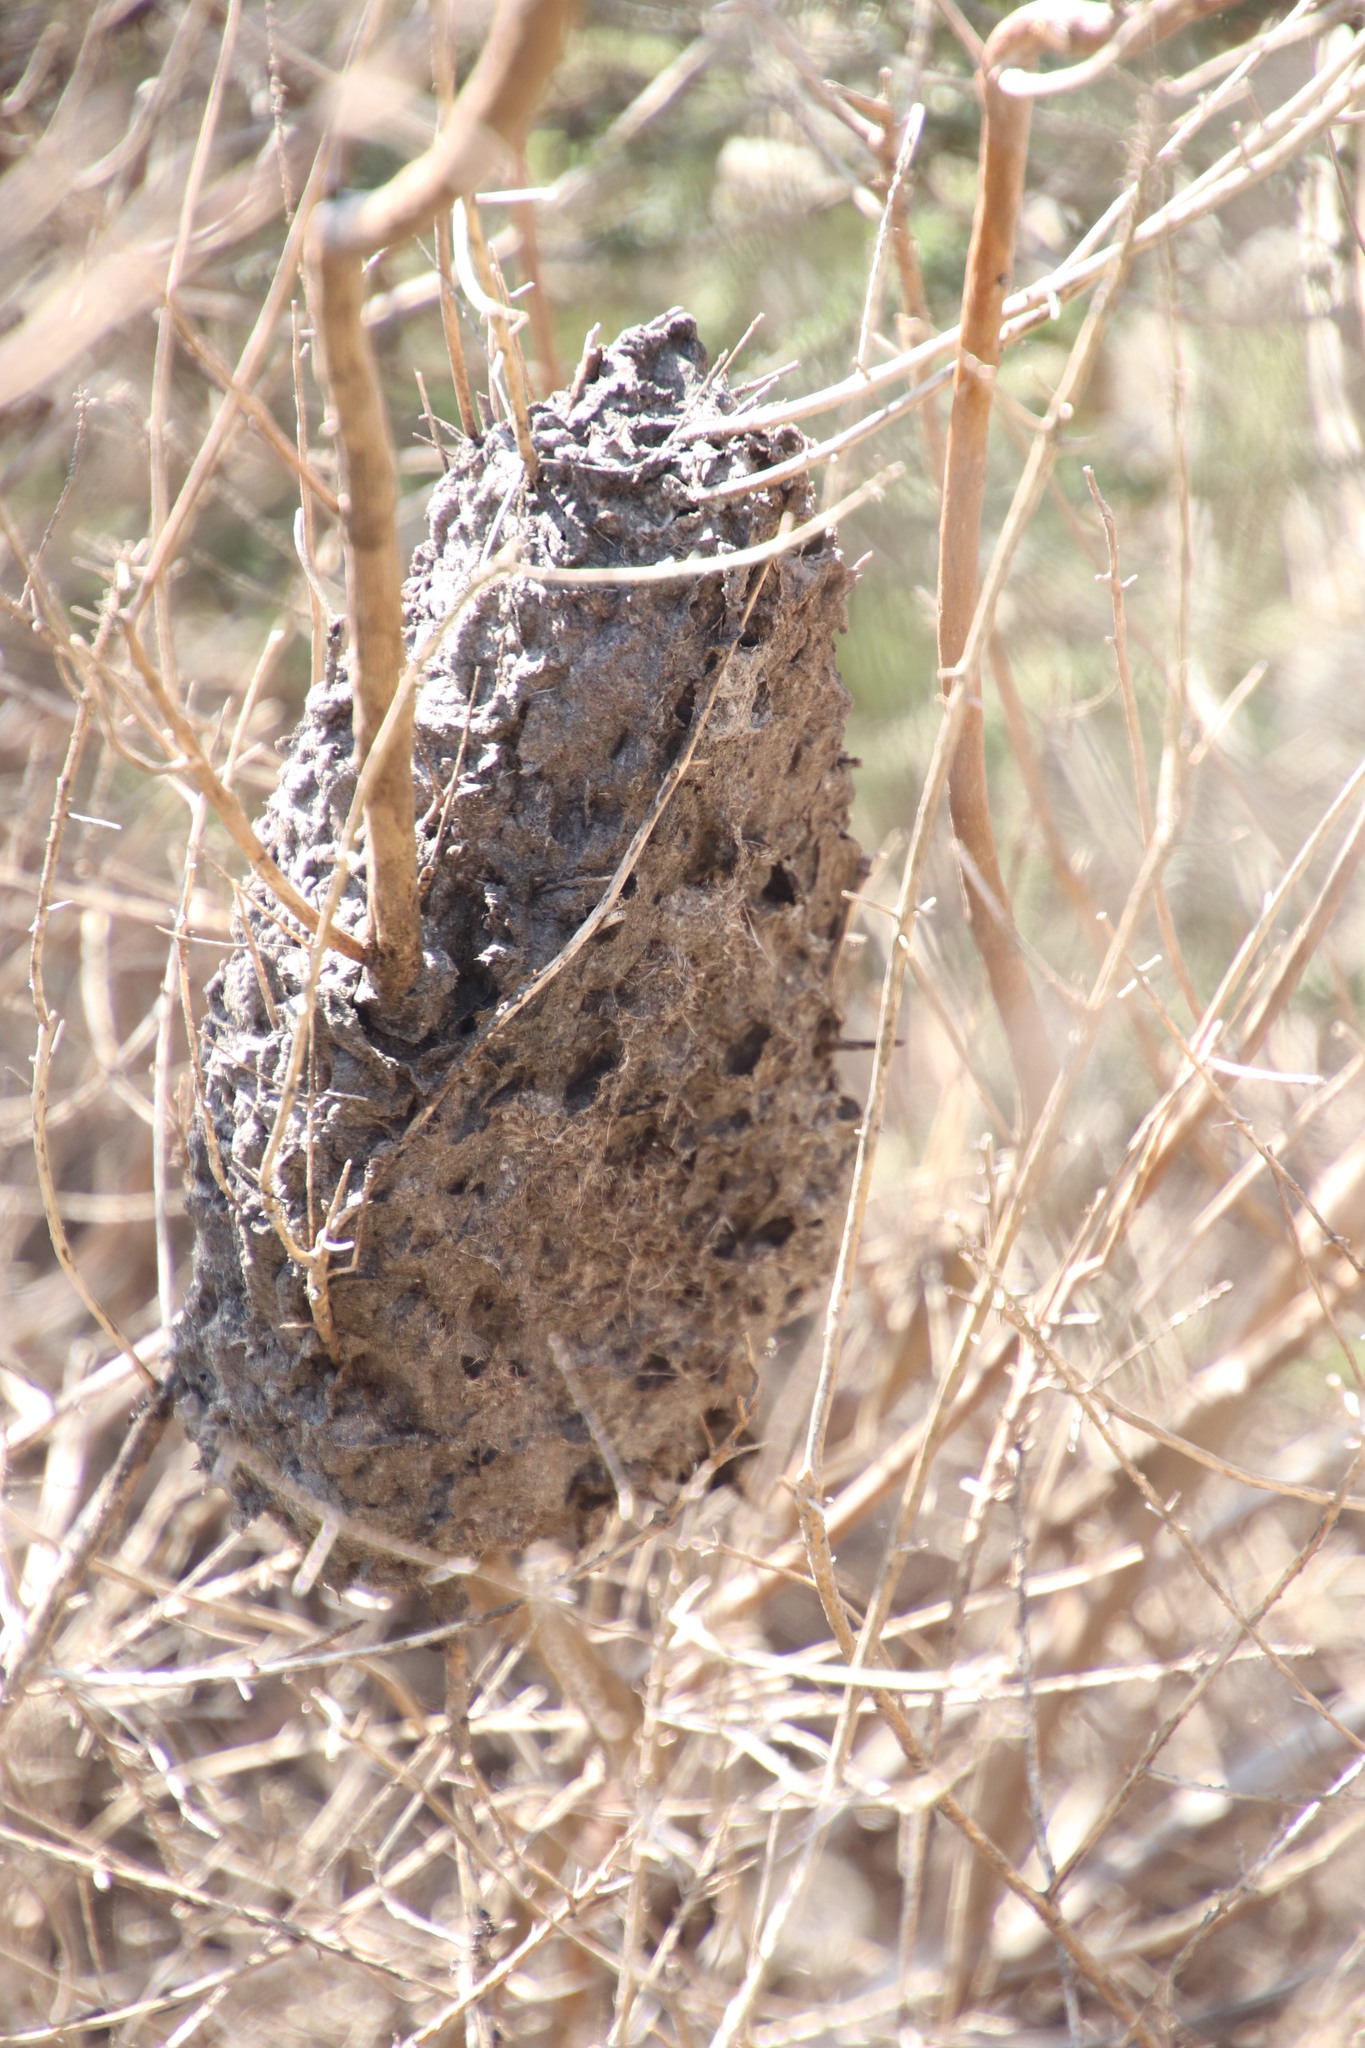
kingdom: Animalia
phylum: Arthropoda
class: Insecta
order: Hymenoptera
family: Formicidae
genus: Crematogaster
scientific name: Crematogaster peringueyi
